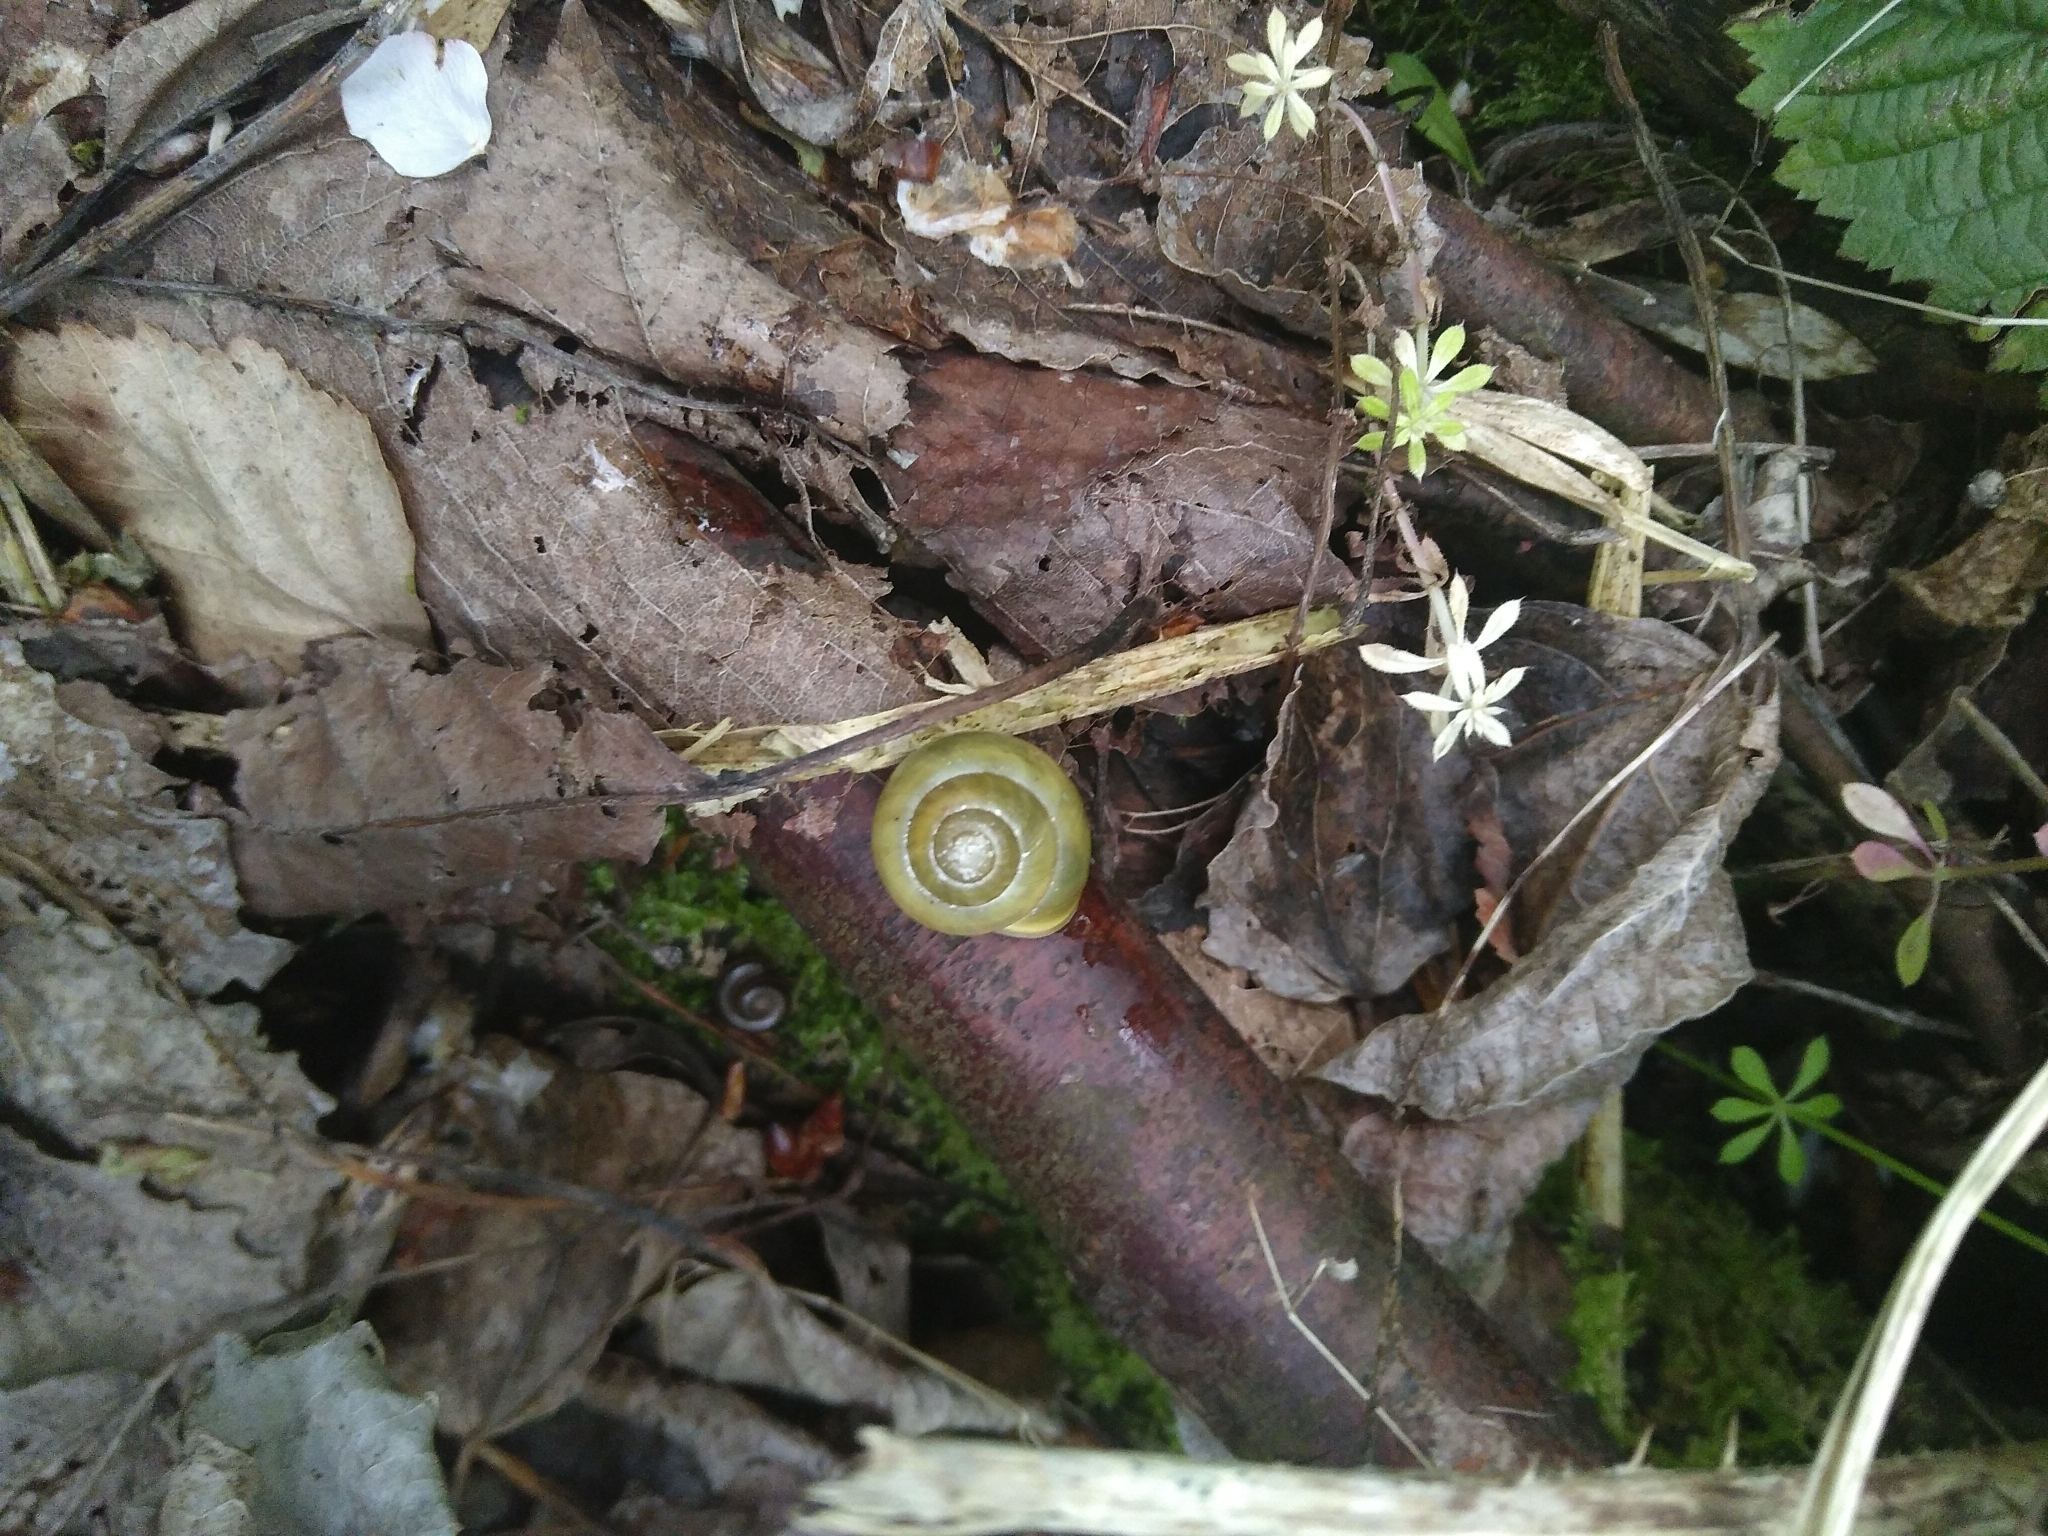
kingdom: Animalia
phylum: Mollusca
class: Gastropoda
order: Stylommatophora
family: Helicidae
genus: Cepaea
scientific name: Cepaea hortensis
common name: White-lip gardensnail
